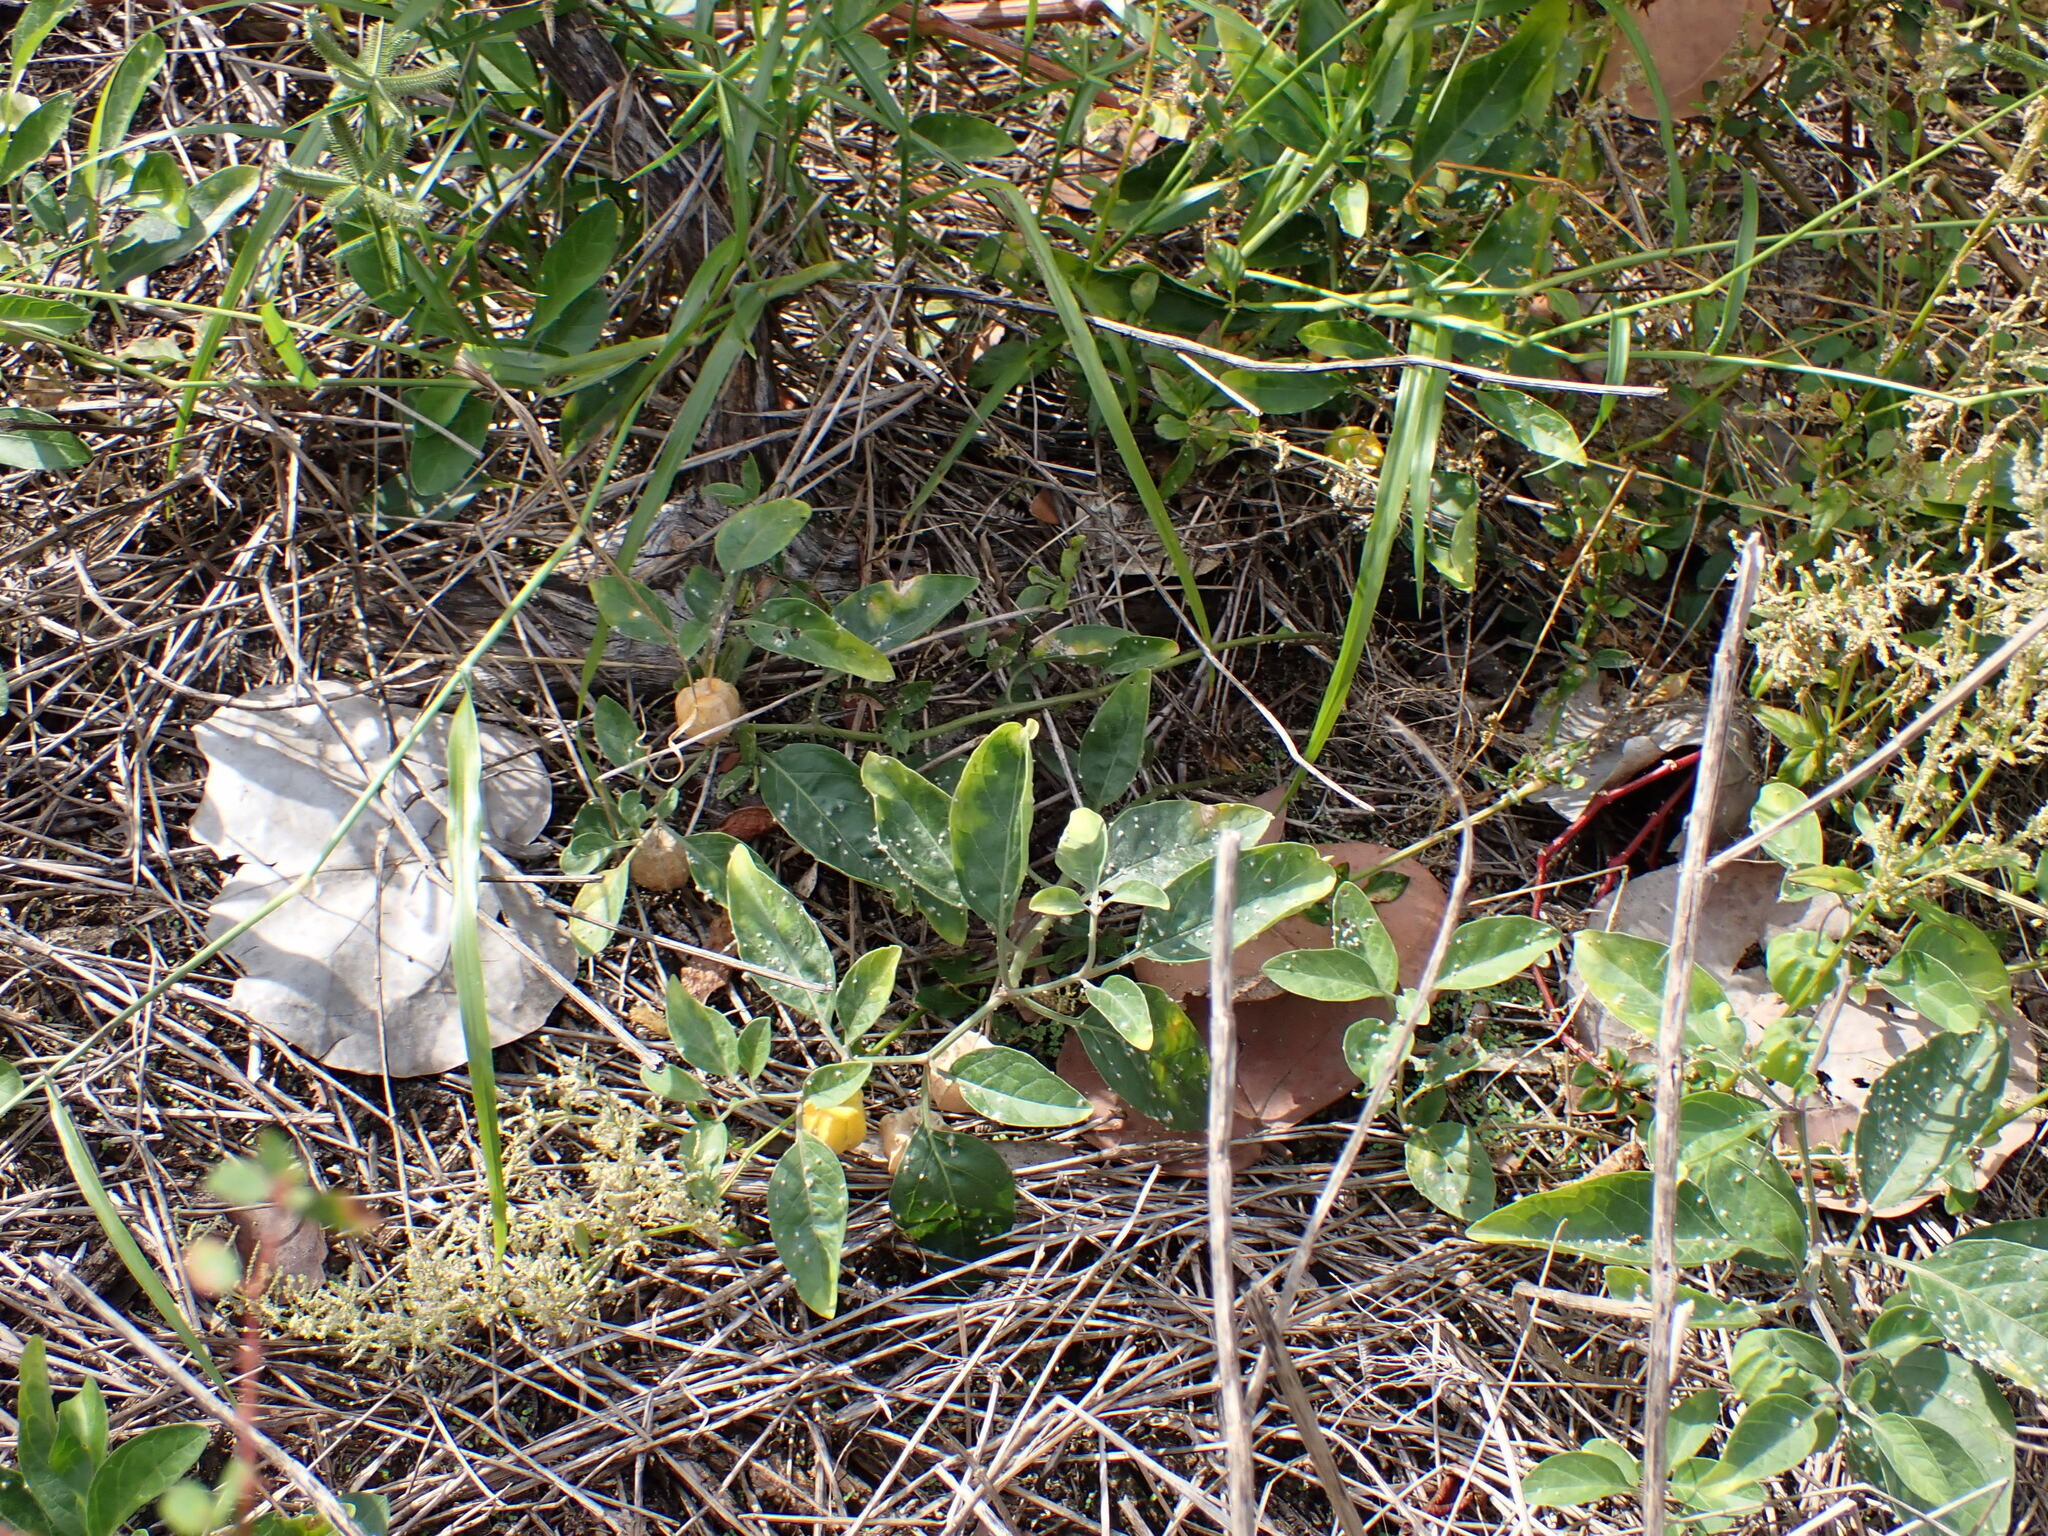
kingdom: Plantae
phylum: Tracheophyta
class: Magnoliopsida
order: Solanales
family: Solanaceae
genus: Physalis
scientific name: Physalis walteri
